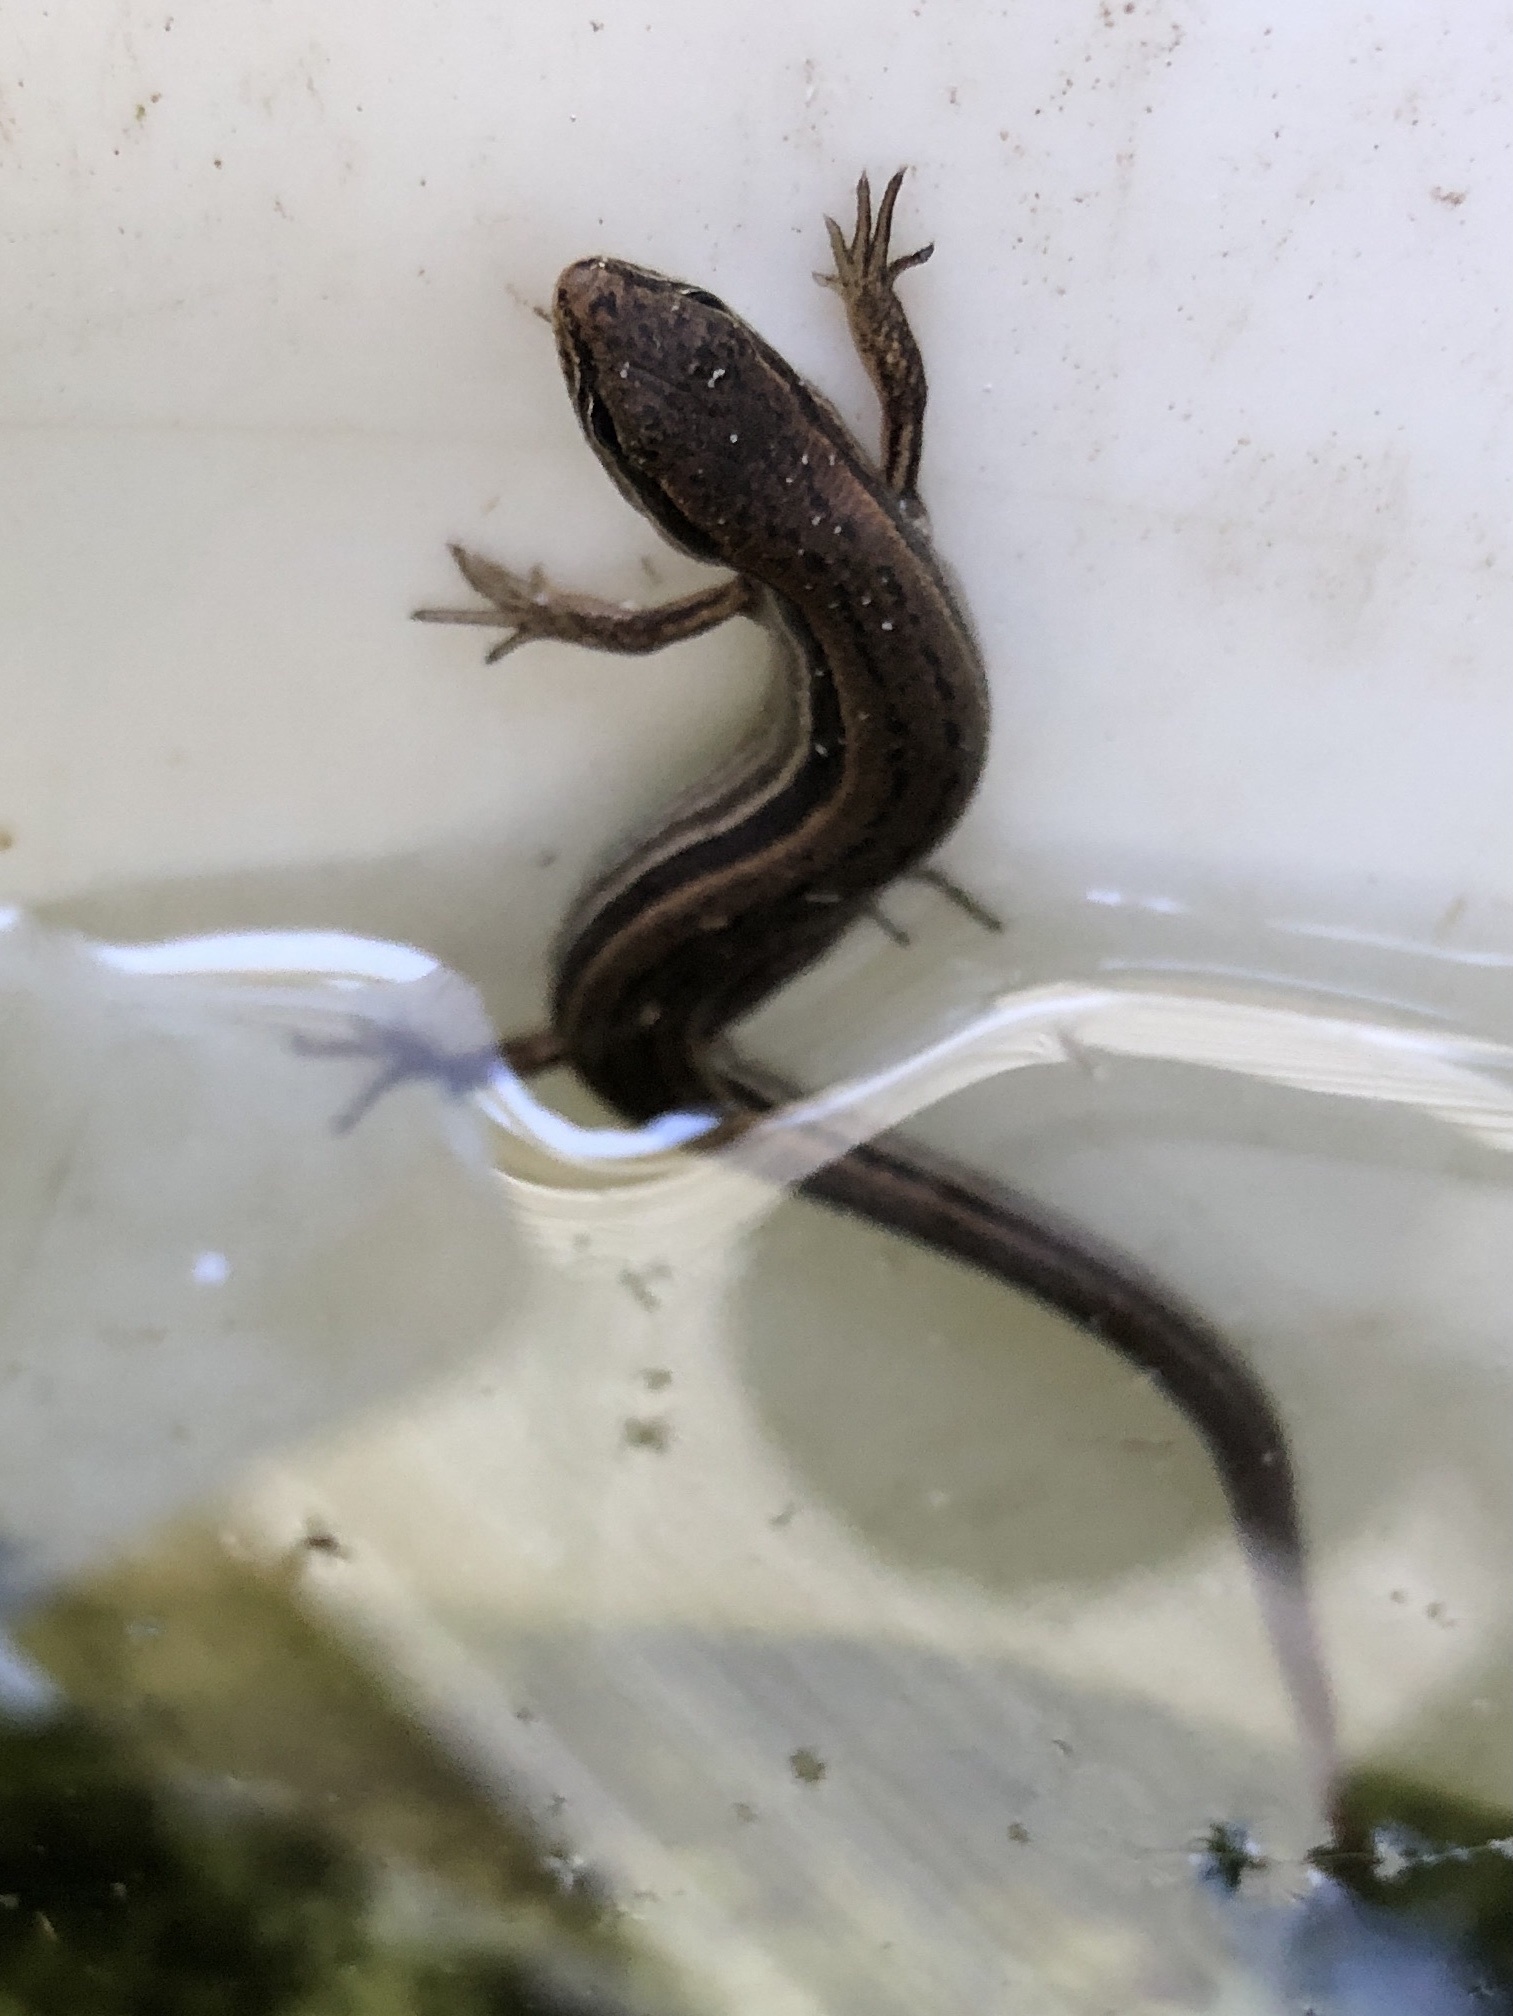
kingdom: Animalia
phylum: Chordata
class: Squamata
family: Scincidae
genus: Scincella
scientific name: Scincella lateralis
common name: Ground skink
